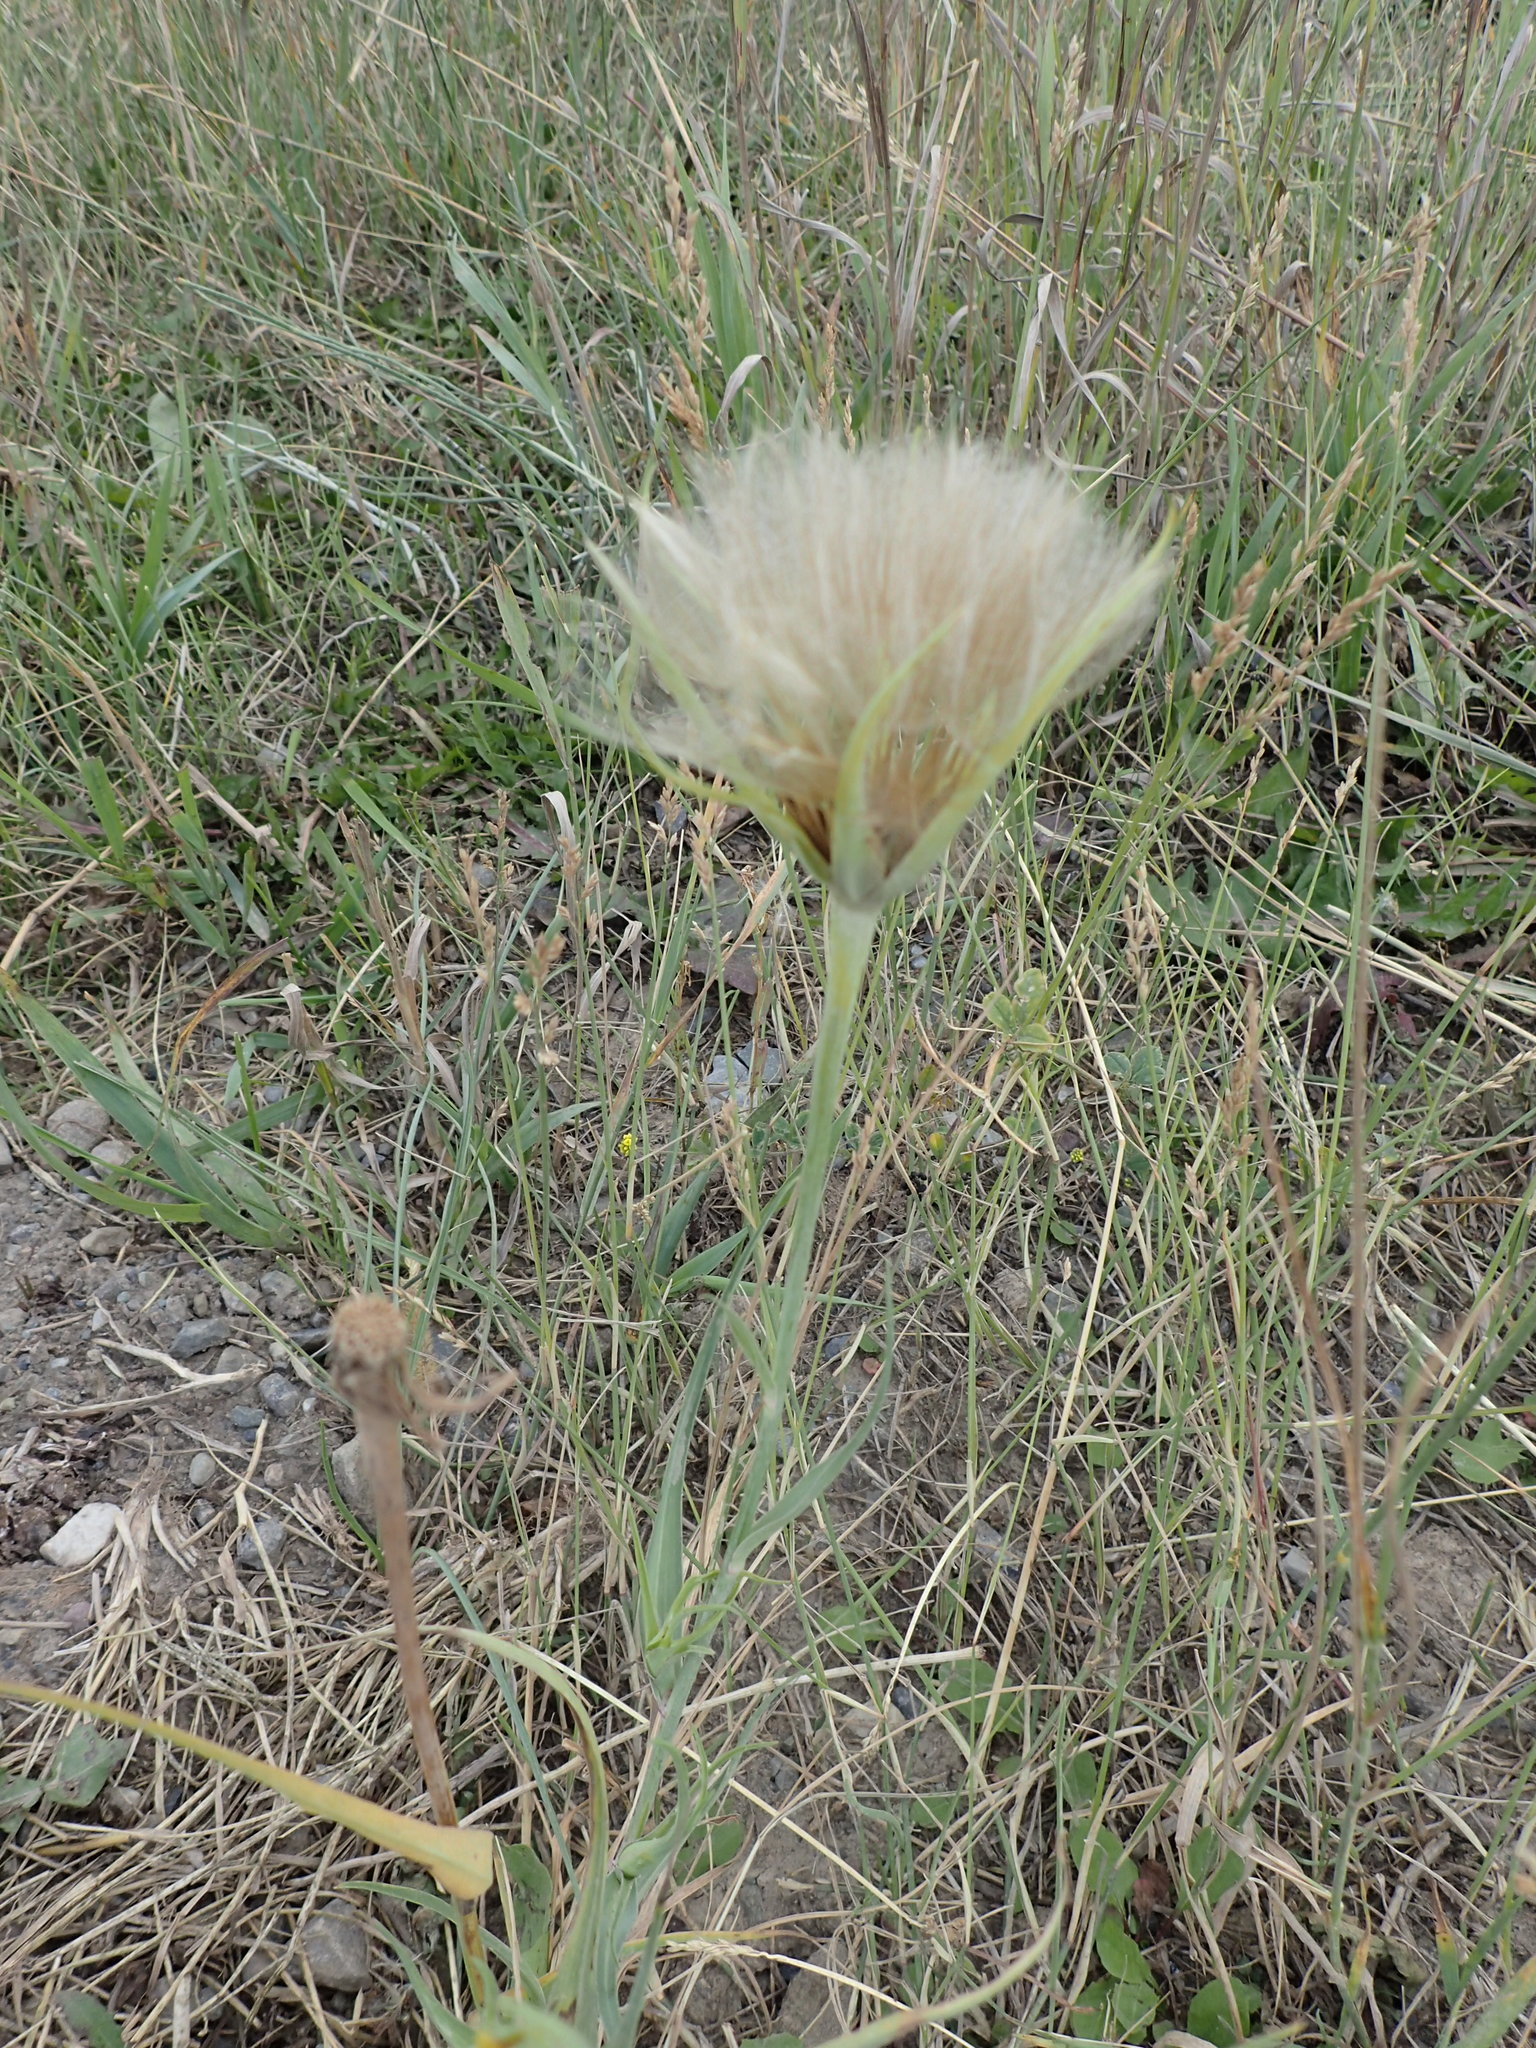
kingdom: Plantae
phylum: Tracheophyta
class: Magnoliopsida
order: Asterales
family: Asteraceae
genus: Tragopogon
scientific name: Tragopogon dubius
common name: Yellow salsify
